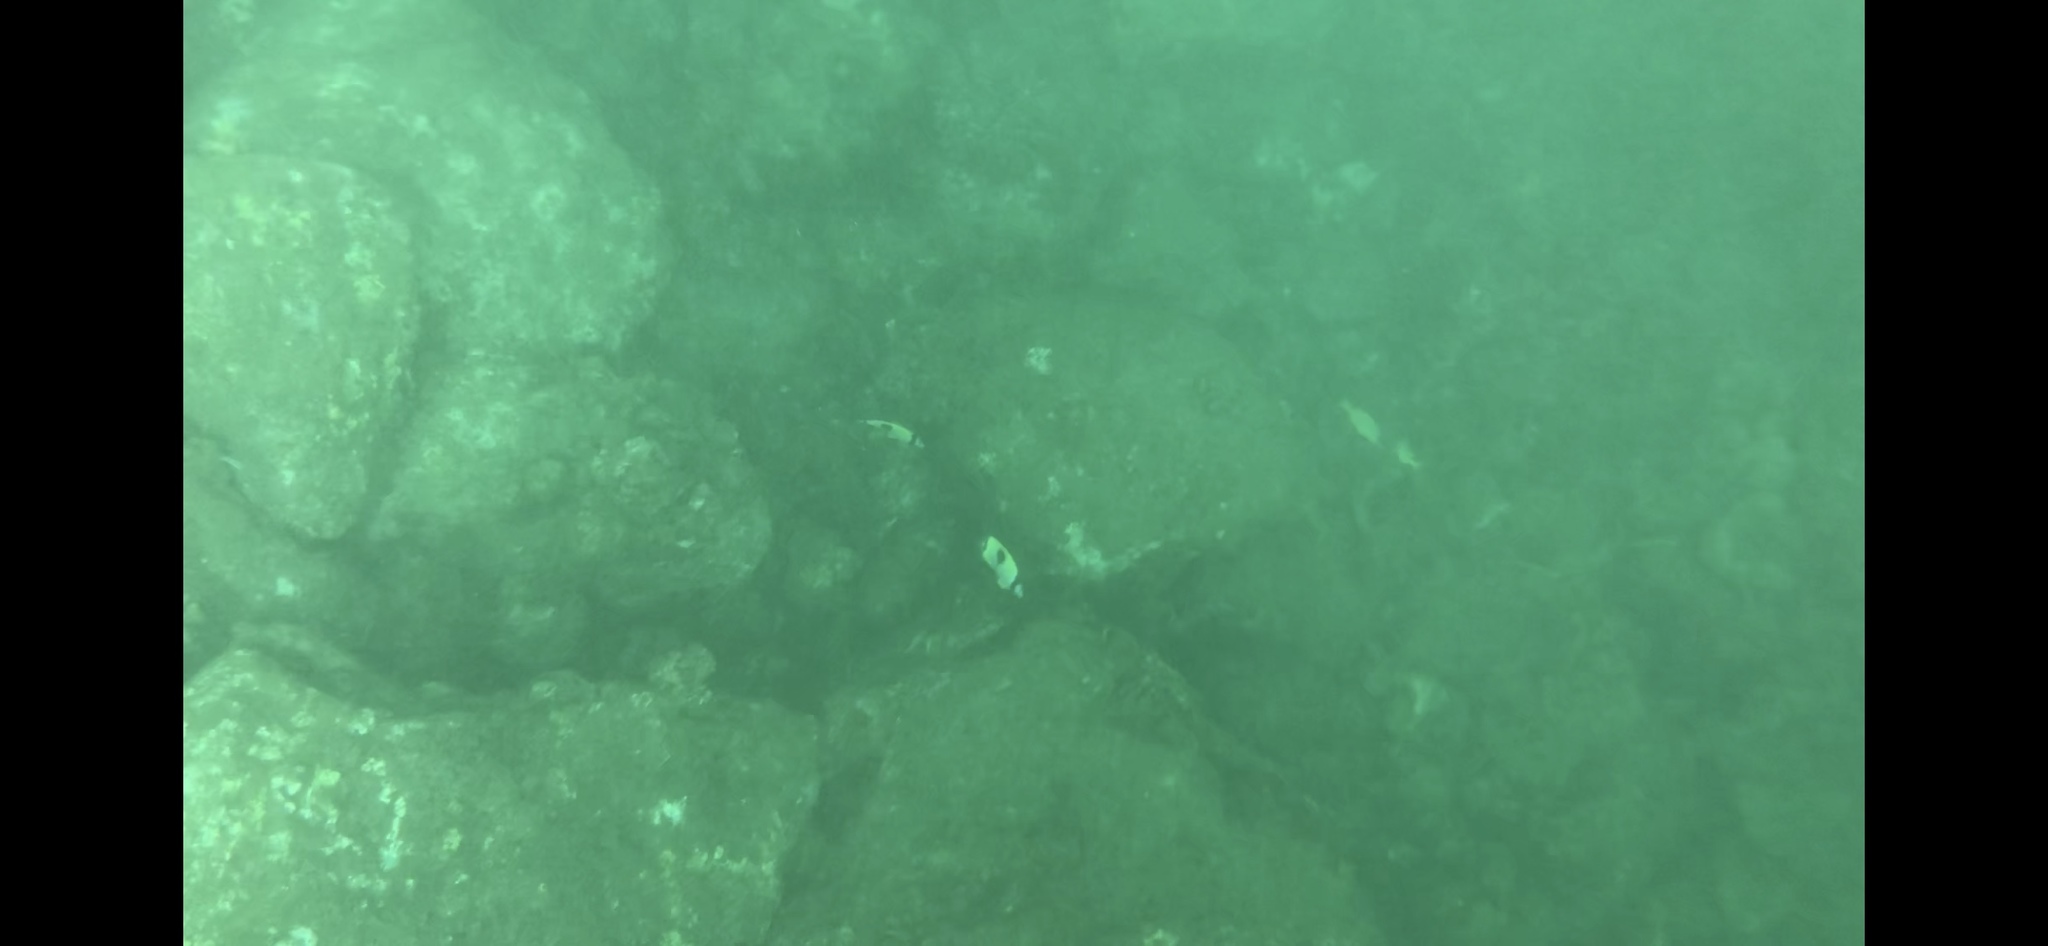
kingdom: Animalia
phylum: Chordata
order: Perciformes
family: Chaetodontidae
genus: Chaetodon
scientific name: Chaetodon unimaculatus
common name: Teardrop butterflyfish
